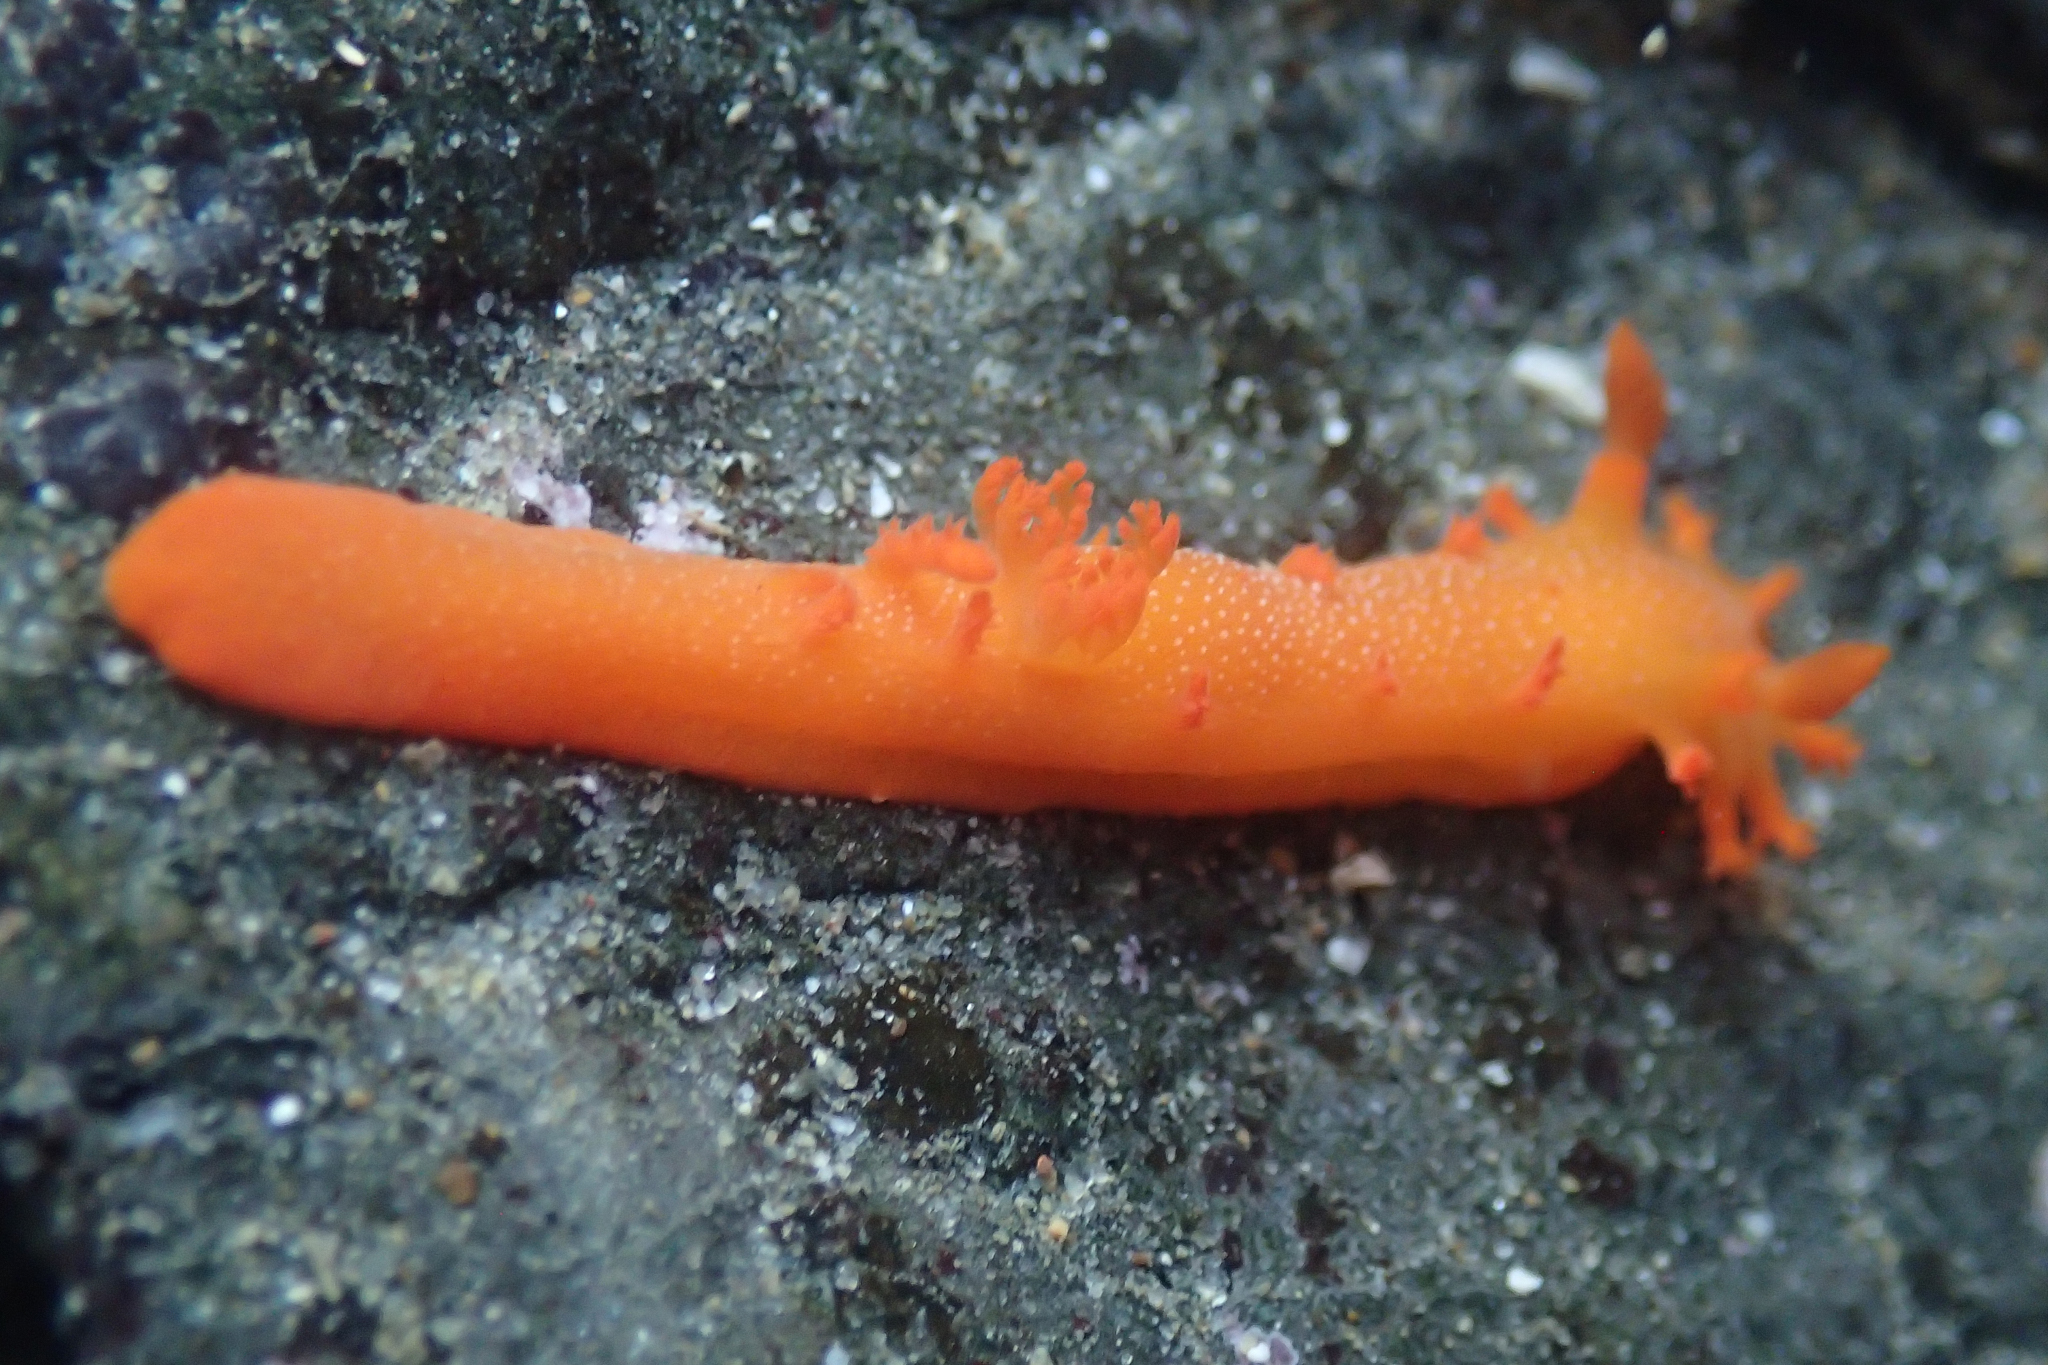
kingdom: Animalia
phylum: Mollusca
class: Gastropoda
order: Nudibranchia
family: Polyceridae
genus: Triopha
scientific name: Triopha maculata
